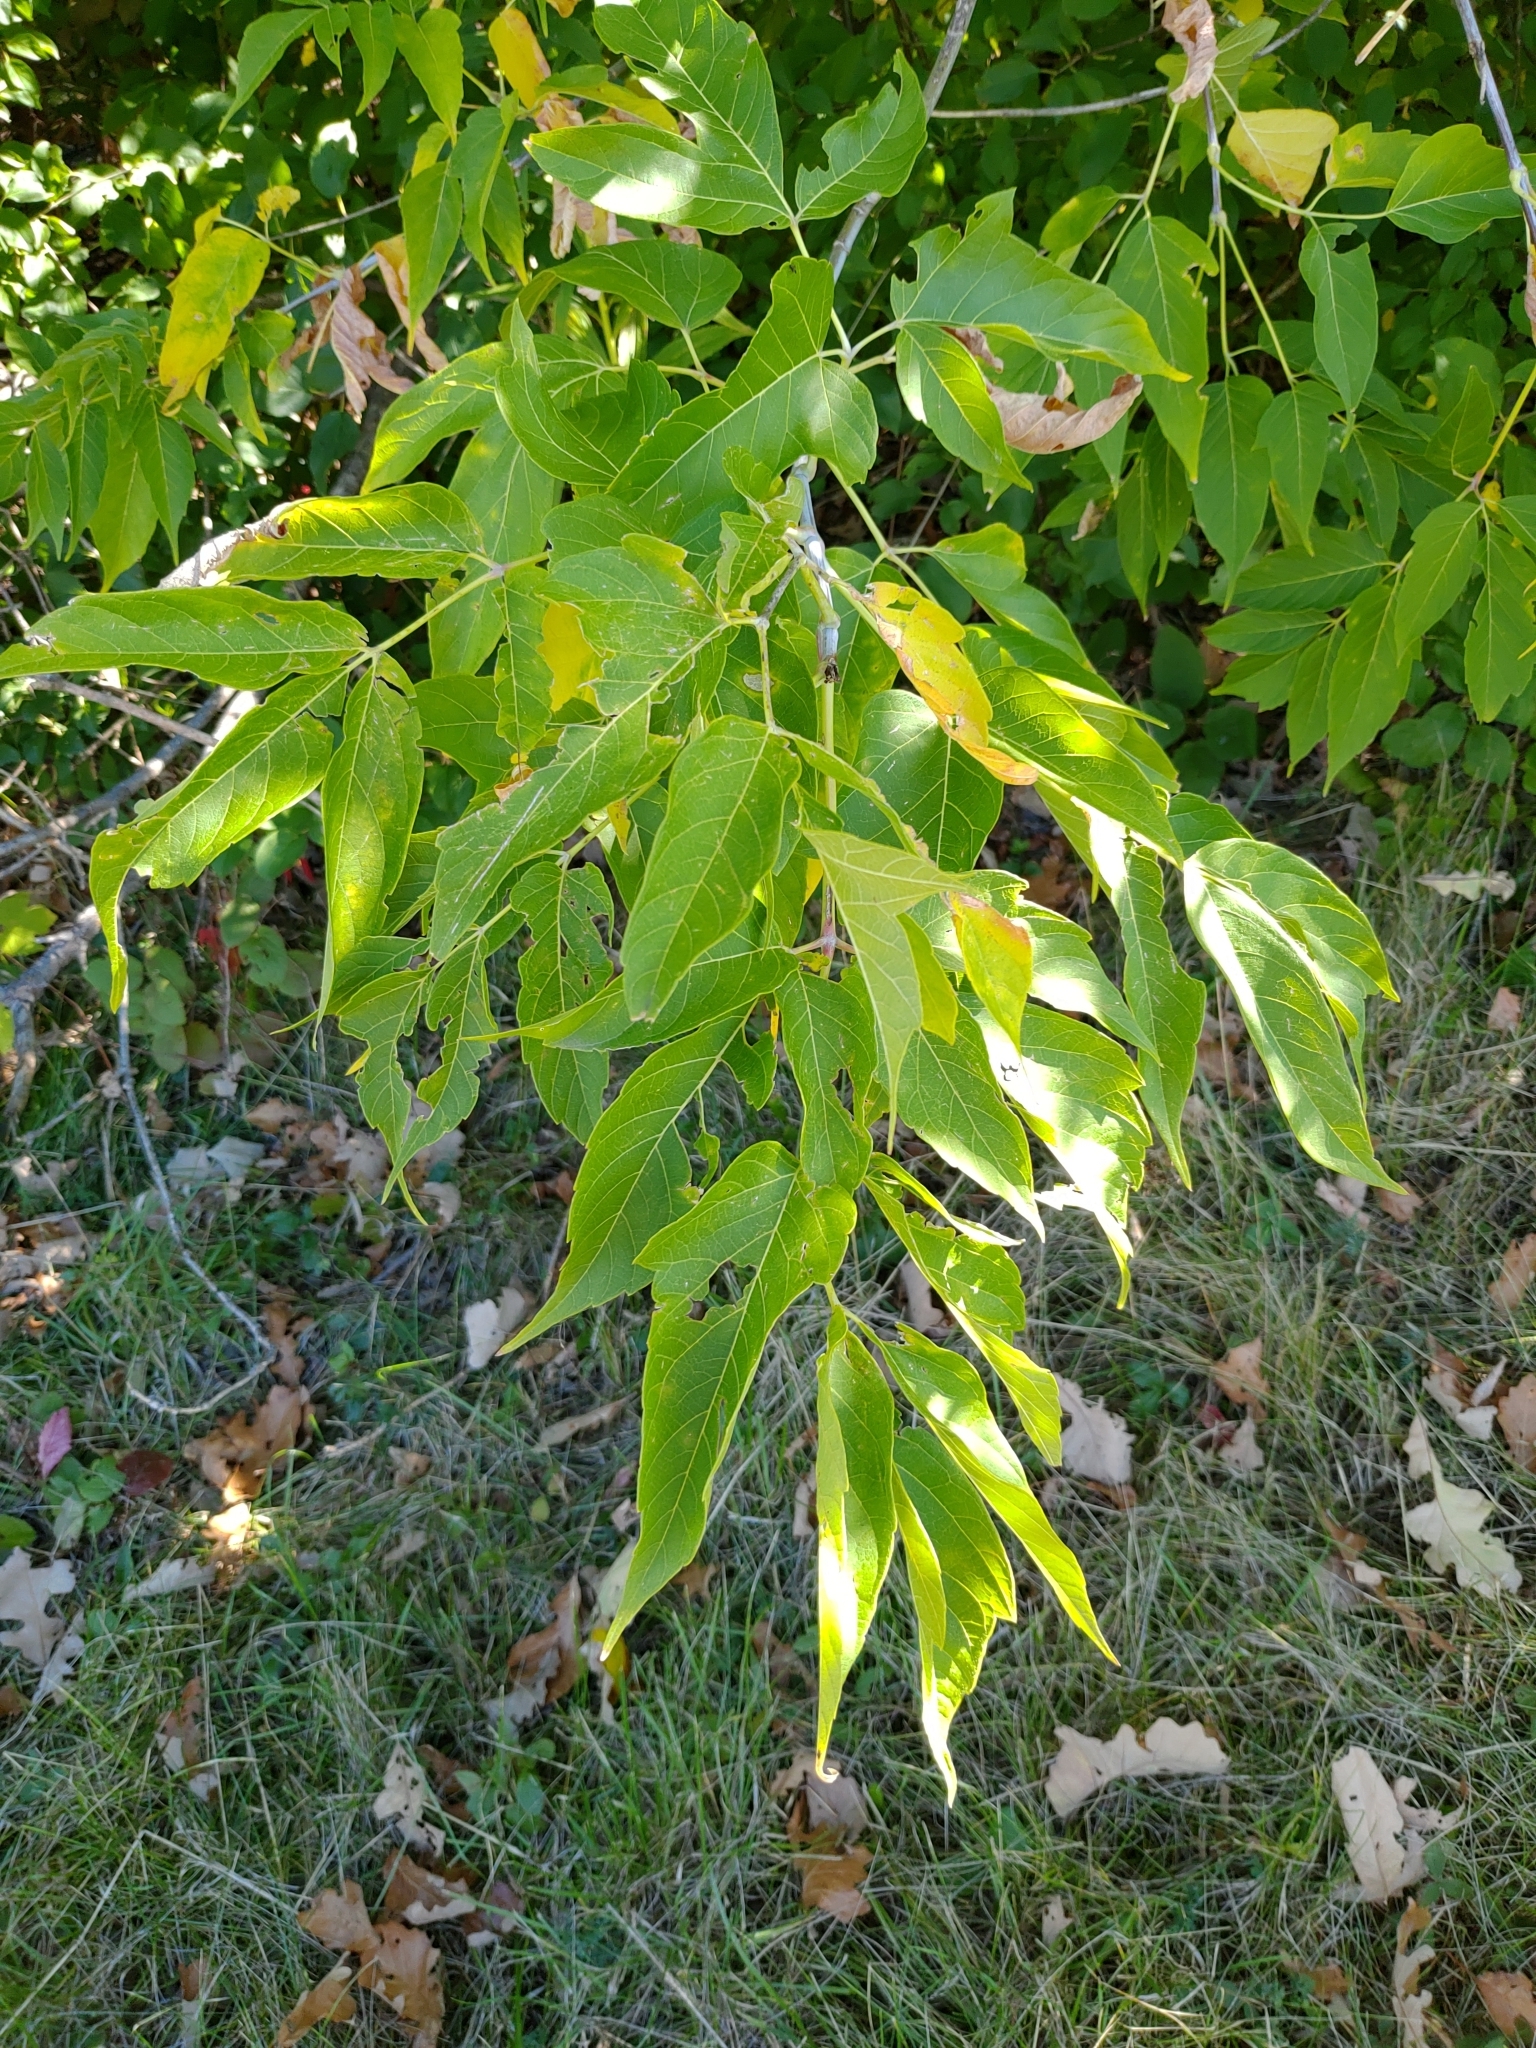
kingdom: Plantae
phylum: Tracheophyta
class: Magnoliopsida
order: Sapindales
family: Sapindaceae
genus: Acer
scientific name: Acer negundo
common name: Ashleaf maple
